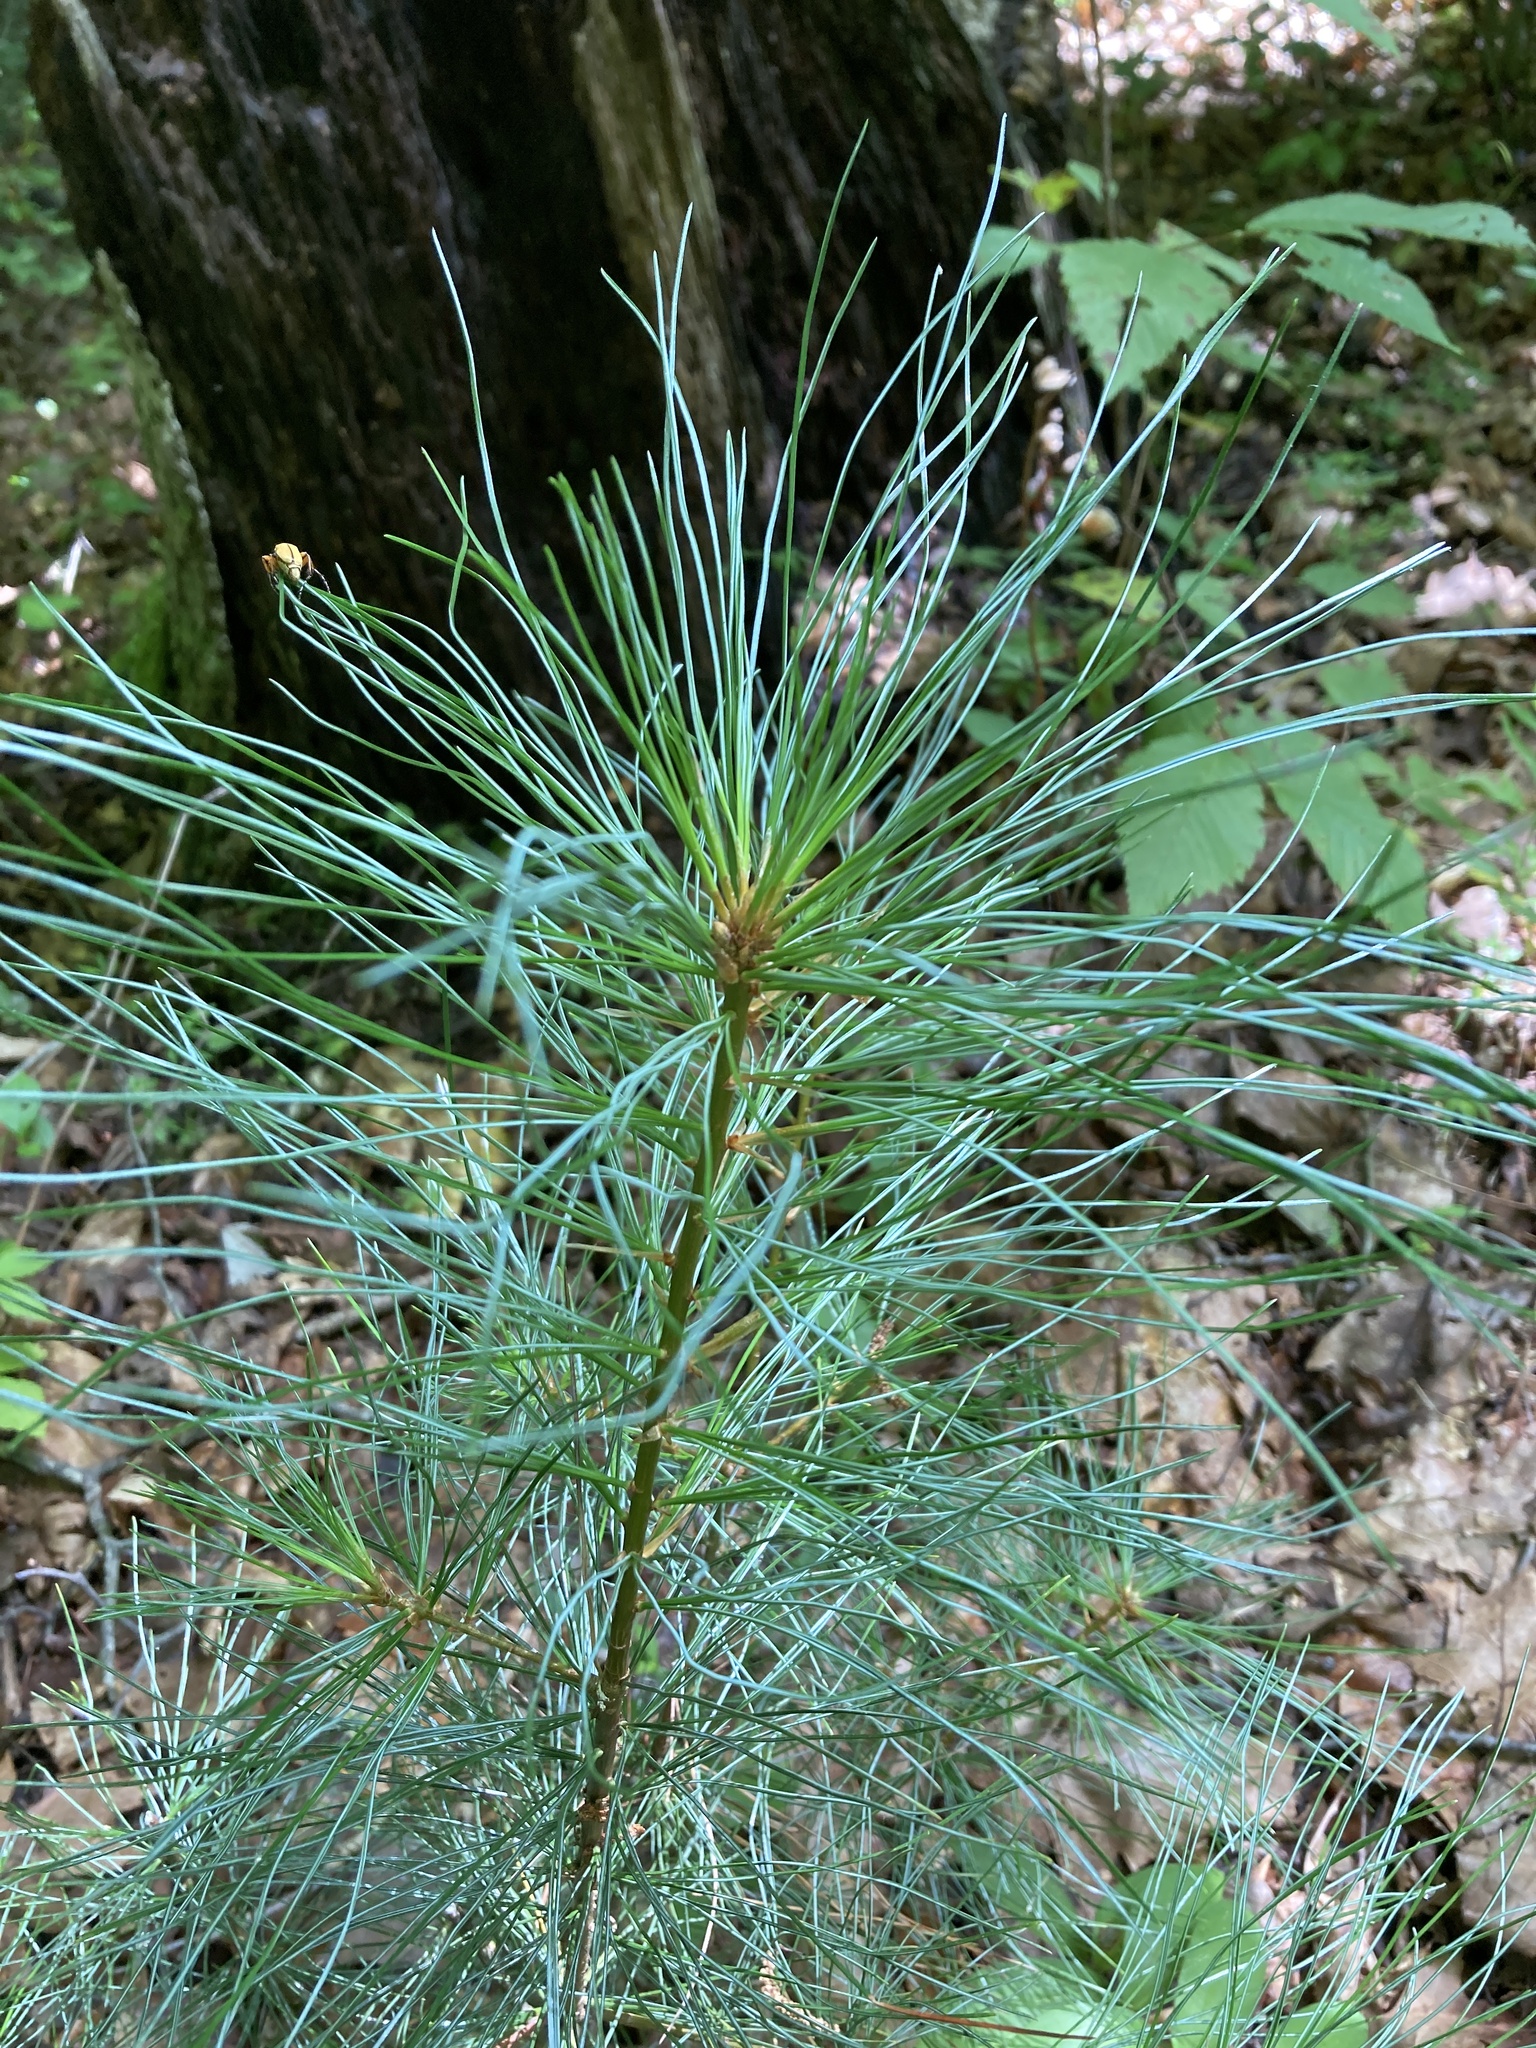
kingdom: Plantae
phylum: Tracheophyta
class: Pinopsida
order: Pinales
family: Pinaceae
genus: Pinus
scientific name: Pinus strobus
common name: Weymouth pine
